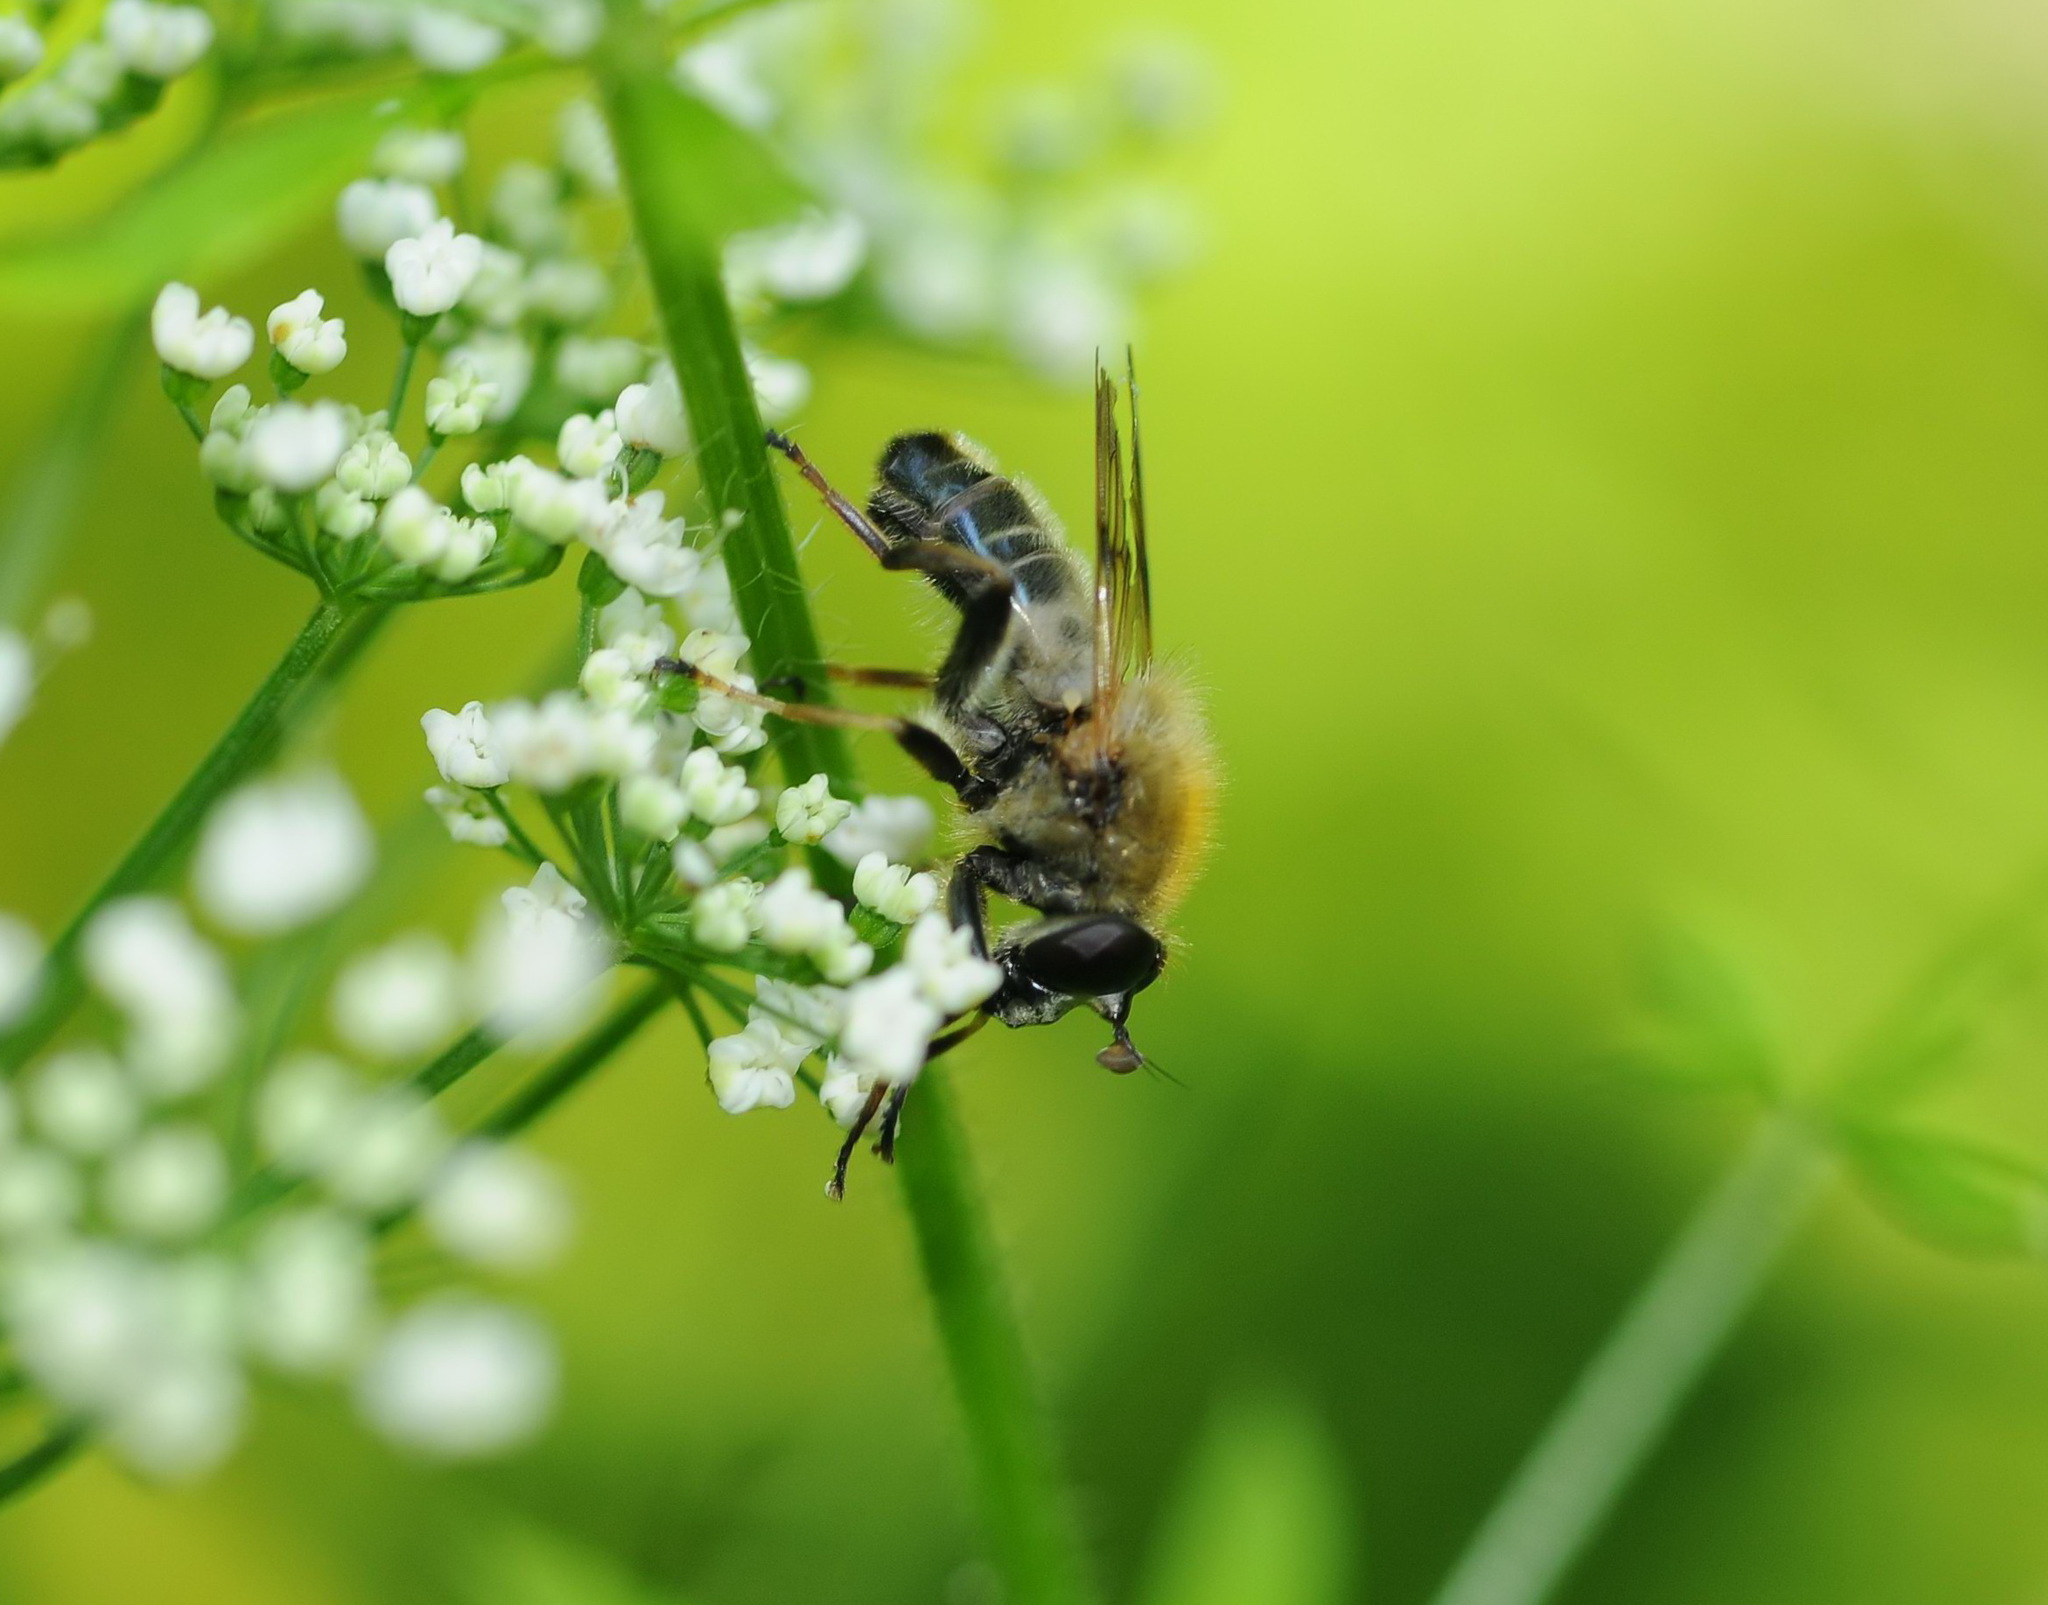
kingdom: Animalia
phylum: Arthropoda
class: Insecta
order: Diptera
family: Syrphidae
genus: Criorhina
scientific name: Criorhina asilica
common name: Pale-banded bear hoverfly
